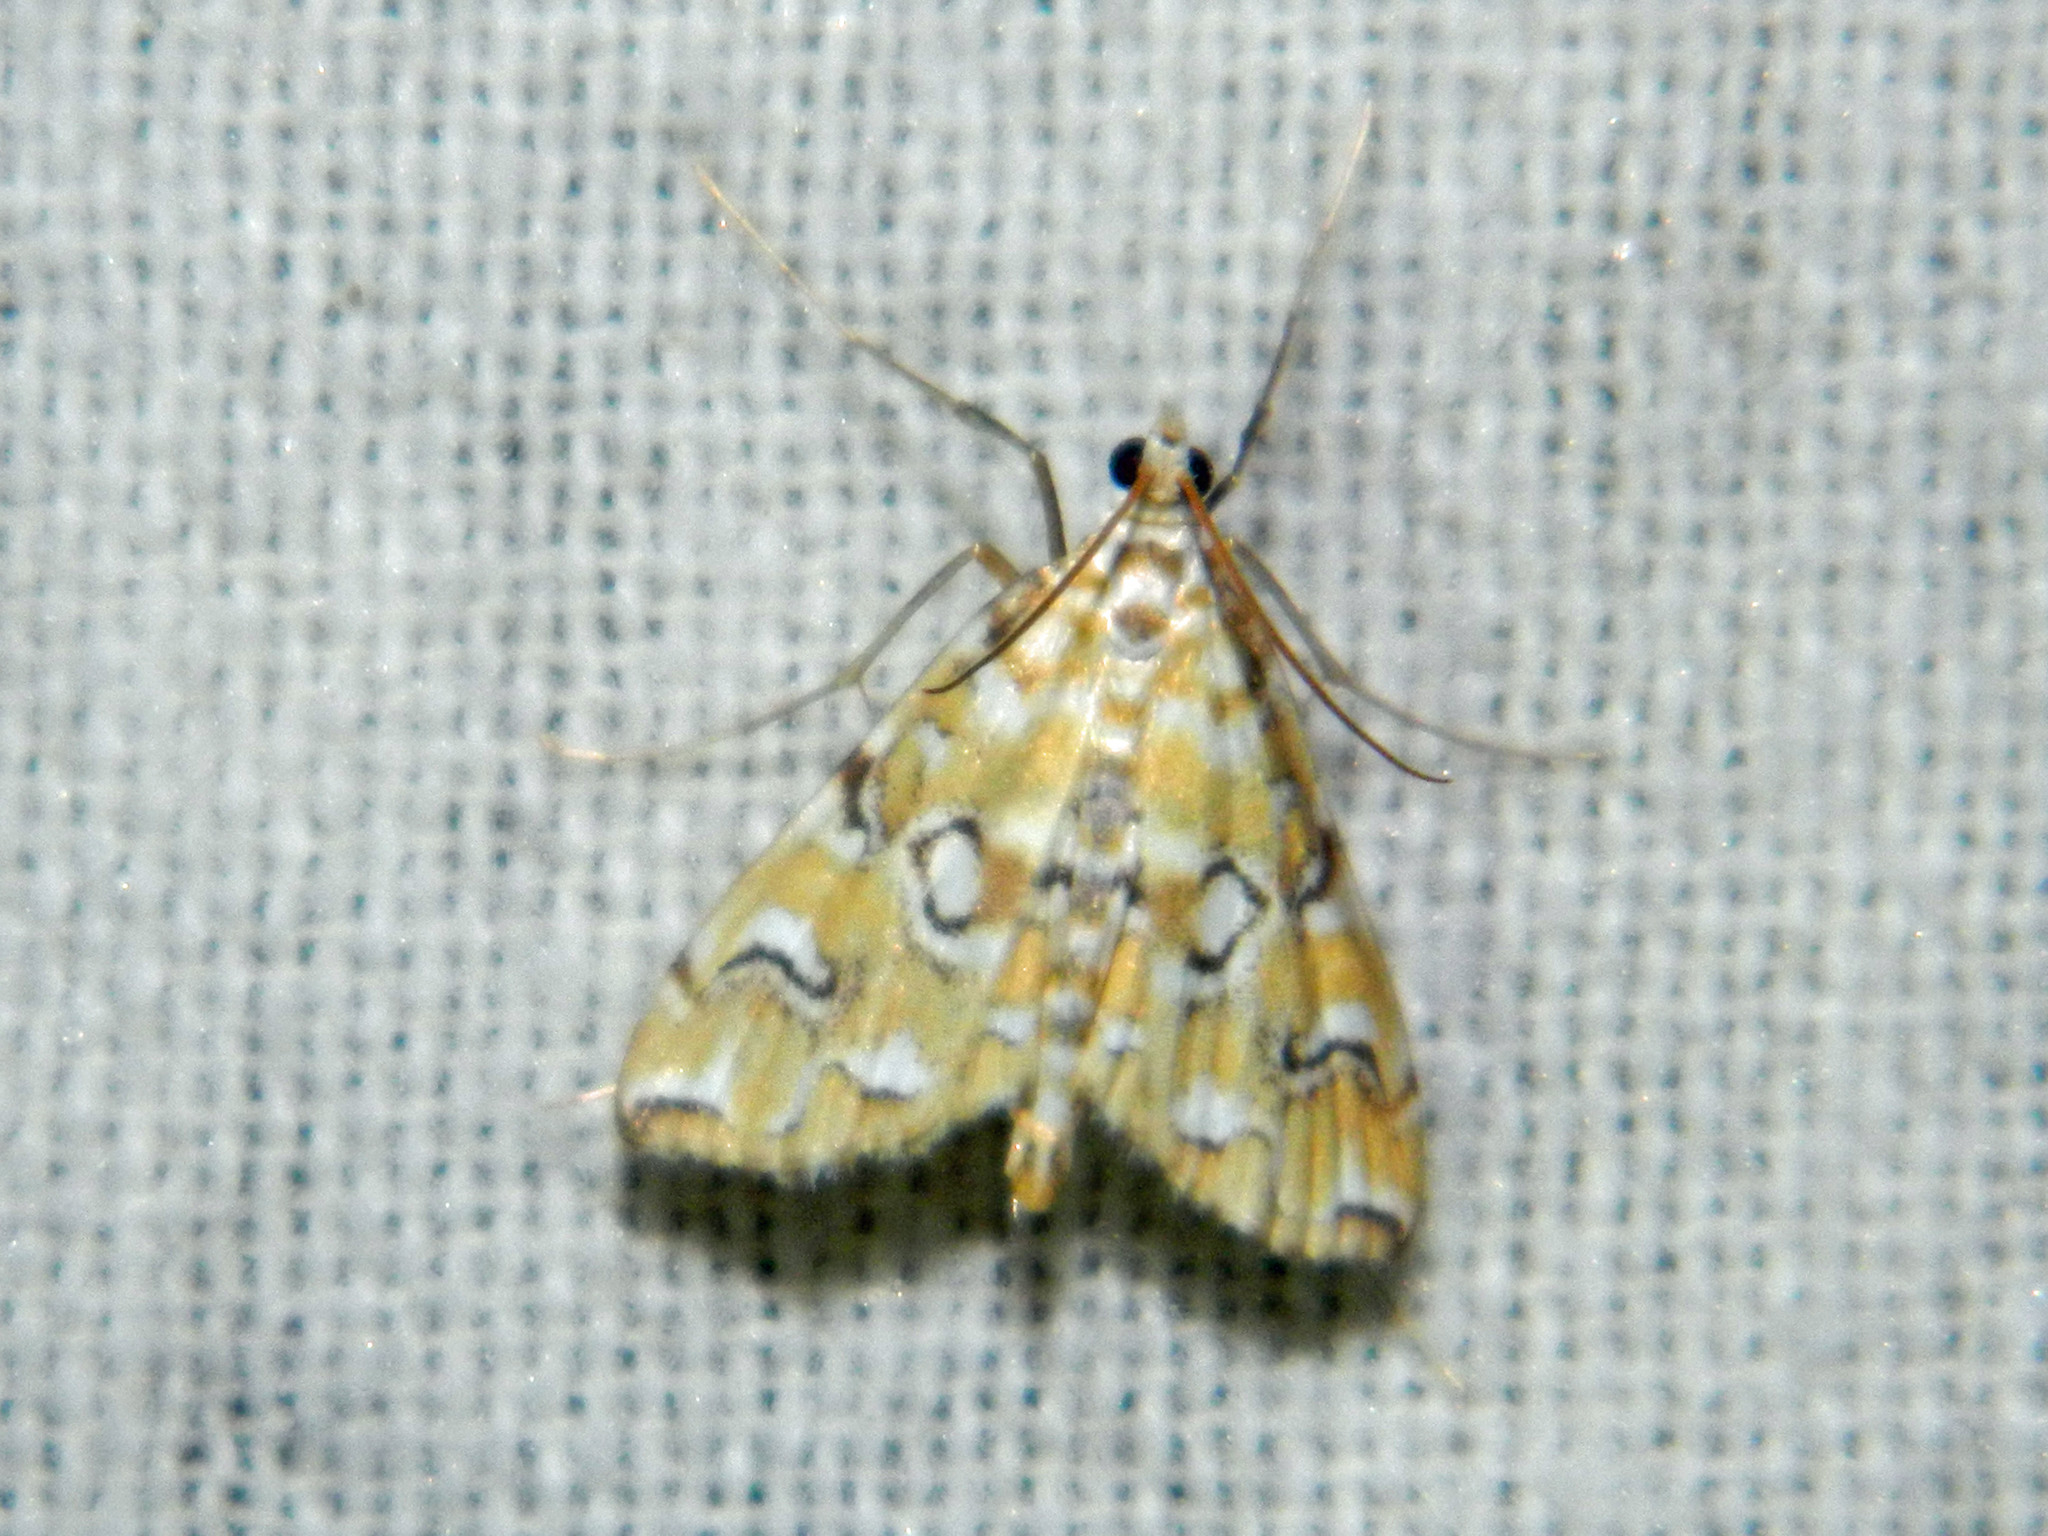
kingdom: Animalia
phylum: Arthropoda
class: Insecta
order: Lepidoptera
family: Crambidae
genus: Elophila
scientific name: Elophila icciusalis
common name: Pondside pyralid moth
